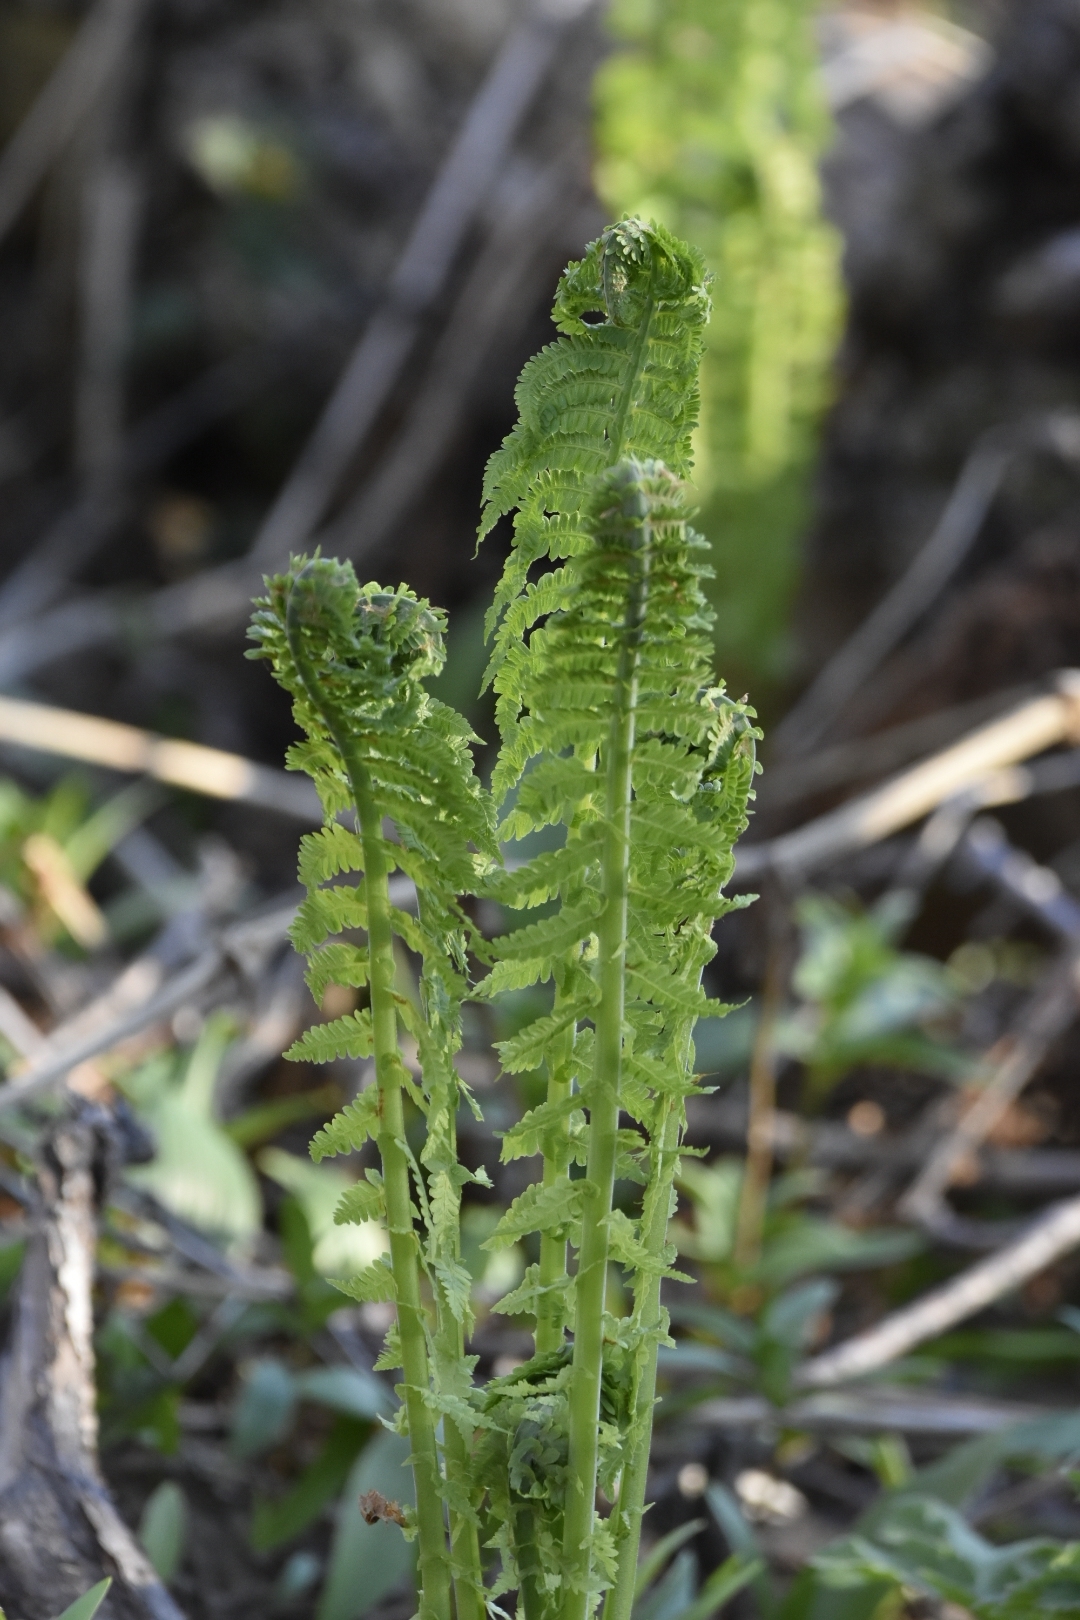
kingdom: Plantae
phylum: Tracheophyta
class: Polypodiopsida
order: Polypodiales
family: Onocleaceae
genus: Matteuccia
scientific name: Matteuccia struthiopteris
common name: Ostrich fern
